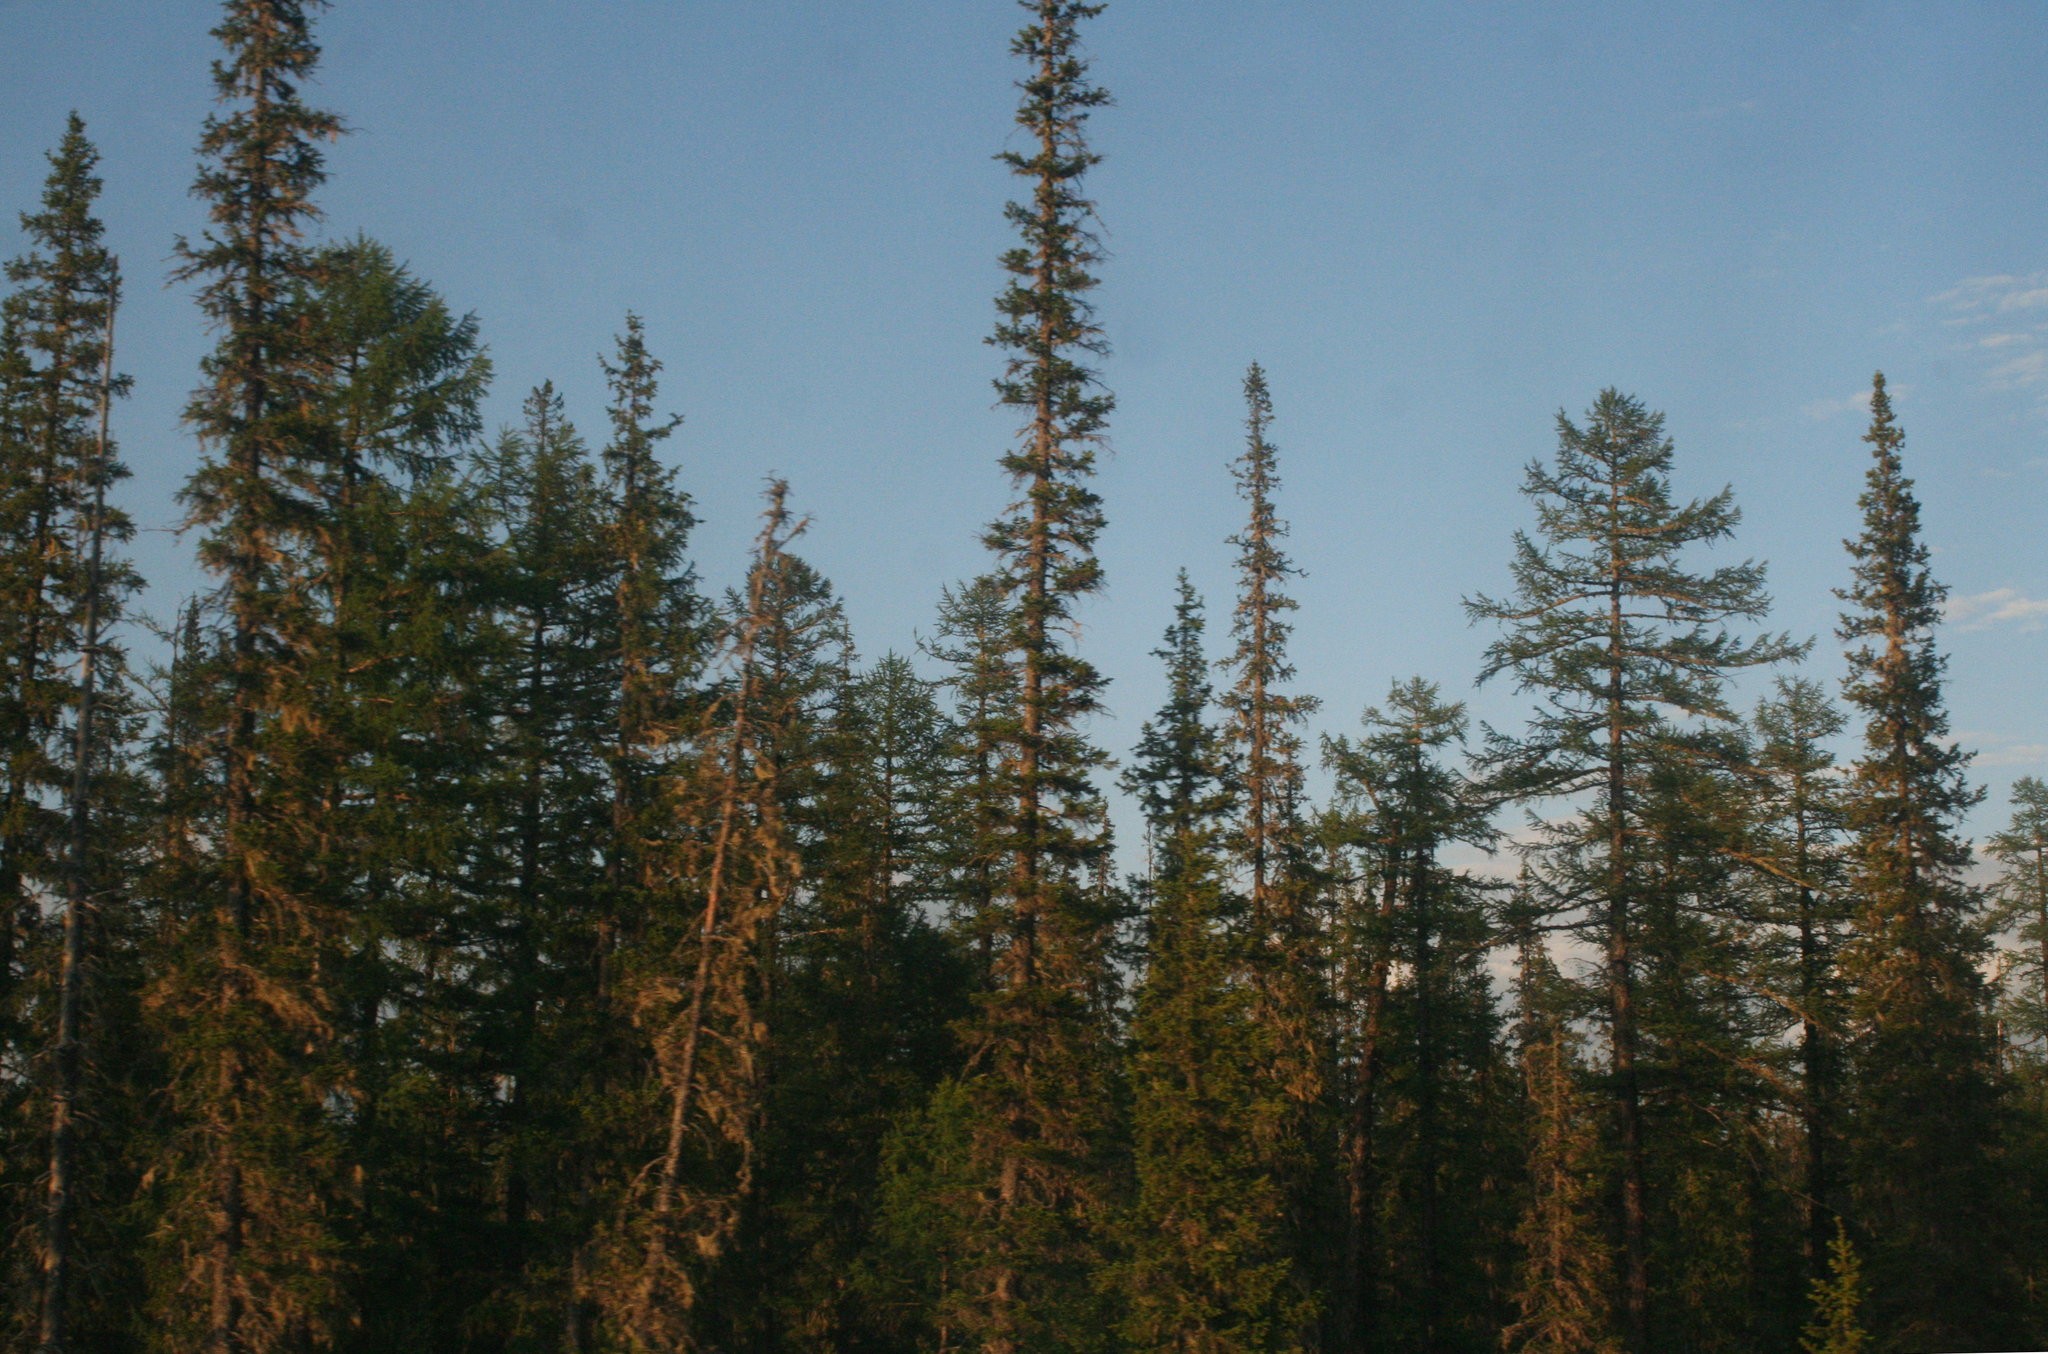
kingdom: Plantae
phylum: Tracheophyta
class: Pinopsida
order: Pinales
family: Pinaceae
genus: Picea
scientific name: Picea obovata
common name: Siberian spruce
